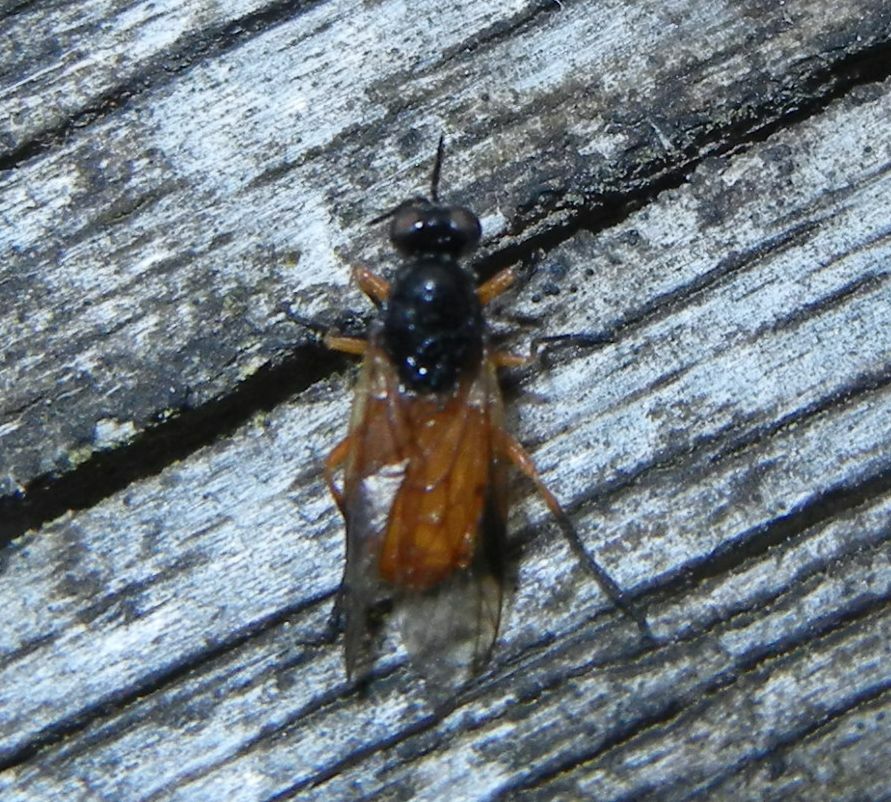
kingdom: Animalia
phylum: Arthropoda
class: Insecta
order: Diptera
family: Stratiomyidae
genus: Beris
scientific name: Beris vallata
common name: Common orange legionnaire
